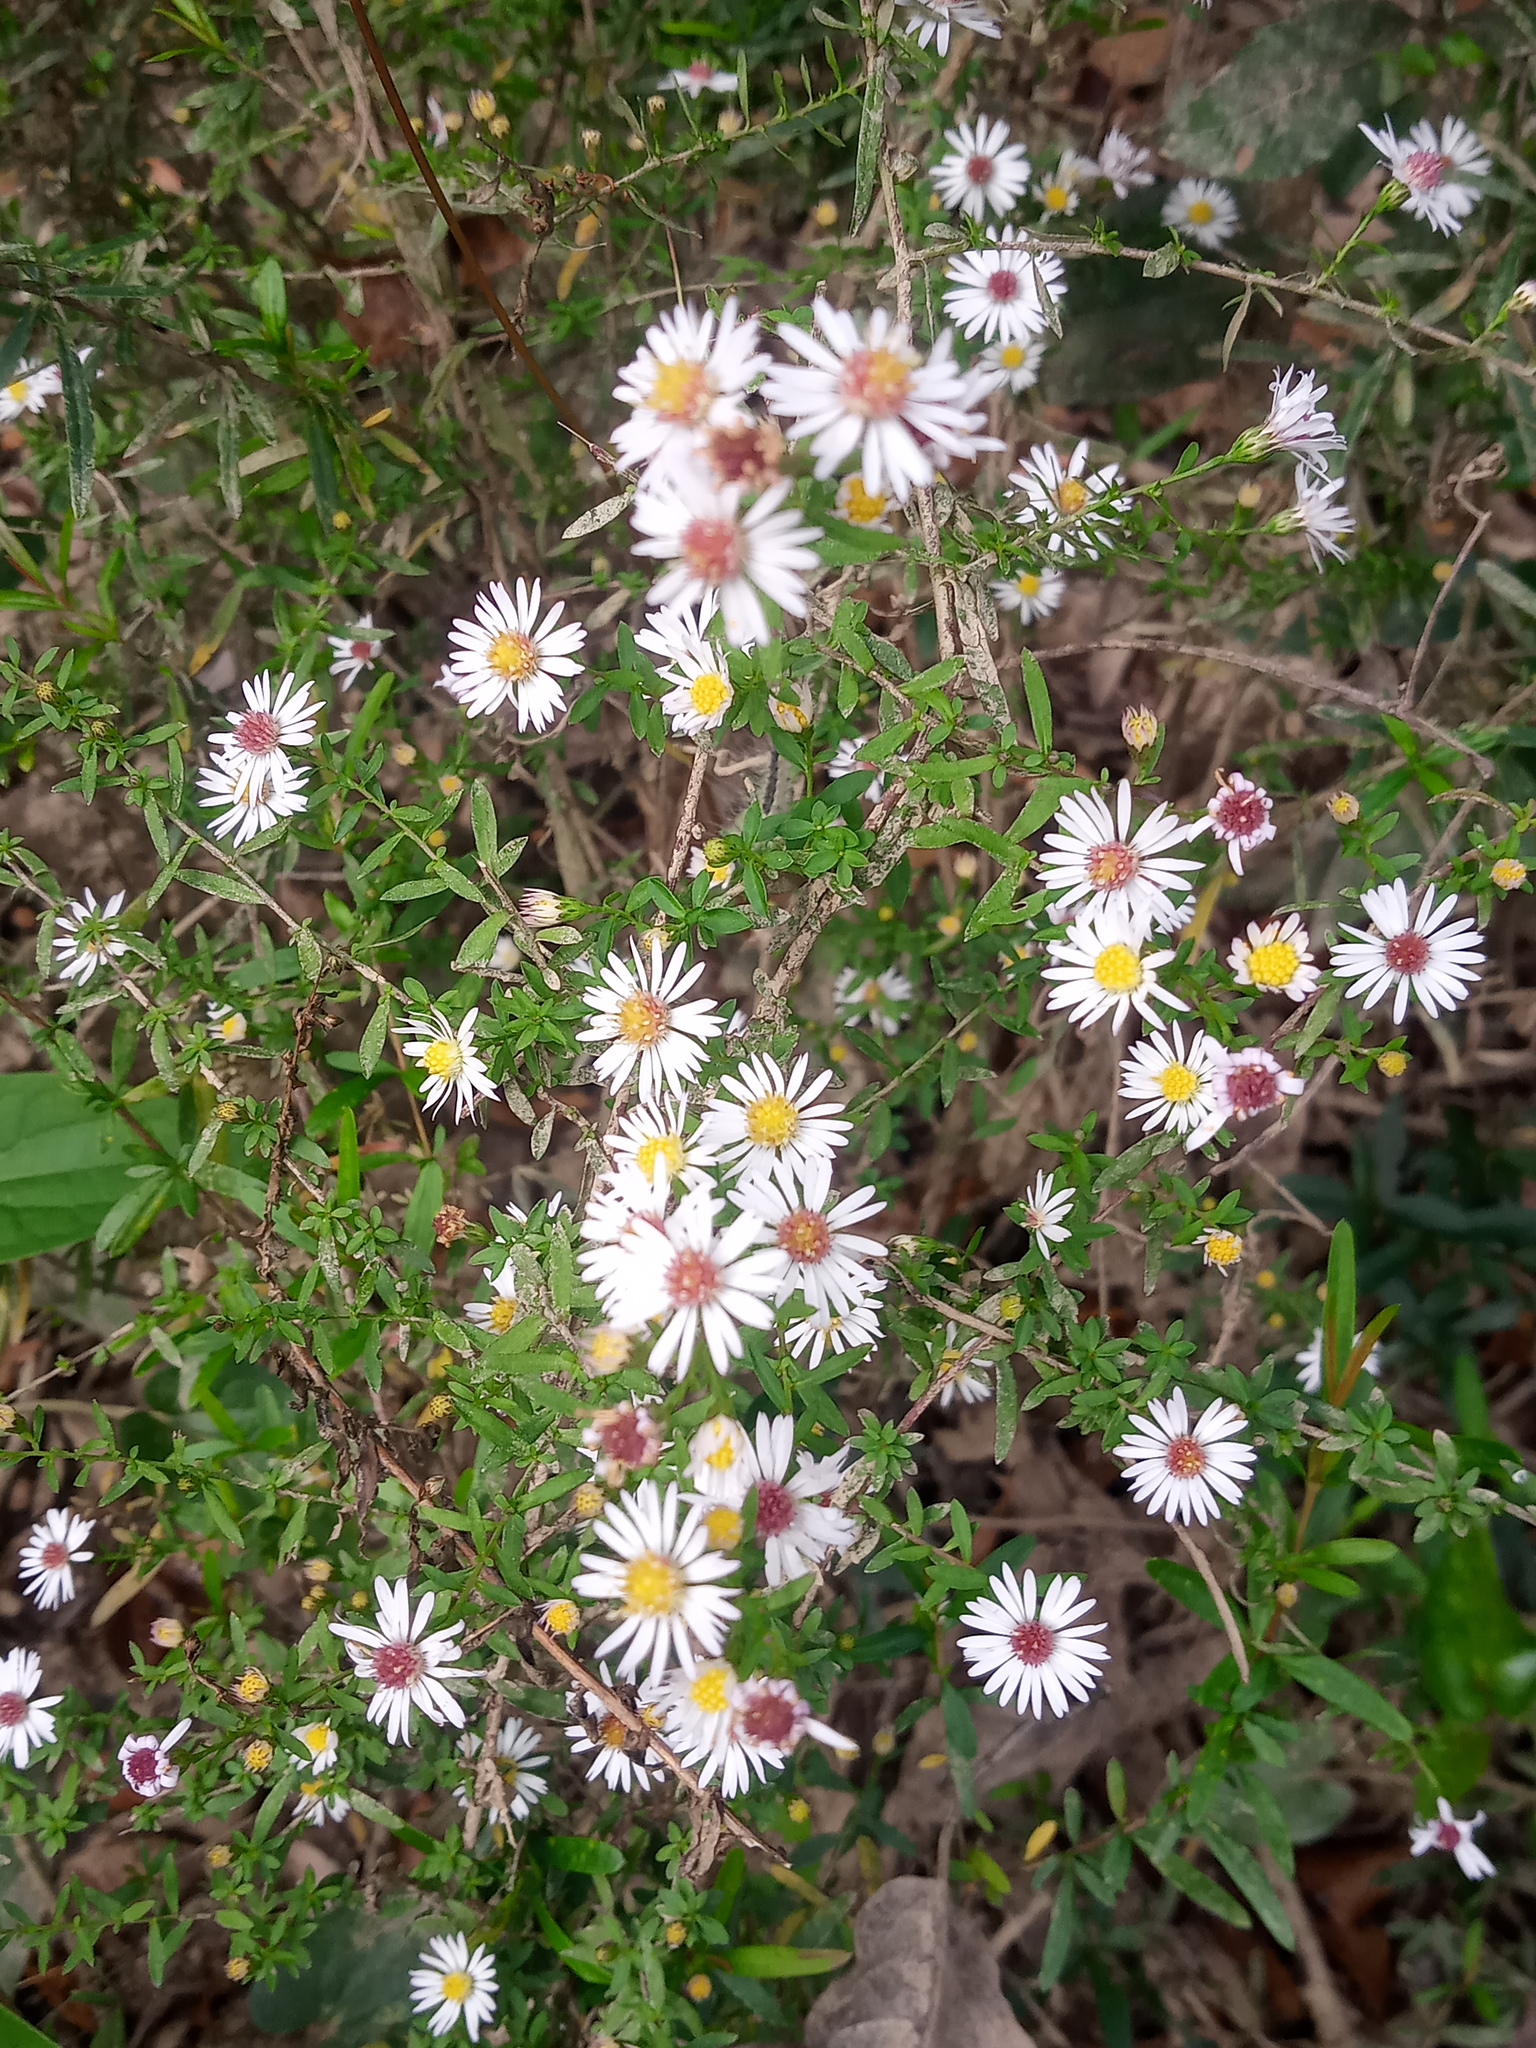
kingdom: Plantae
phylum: Tracheophyta
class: Magnoliopsida
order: Asterales
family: Asteraceae
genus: Symphyotrichum
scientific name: Symphyotrichum dumosum
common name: Bushy aster
